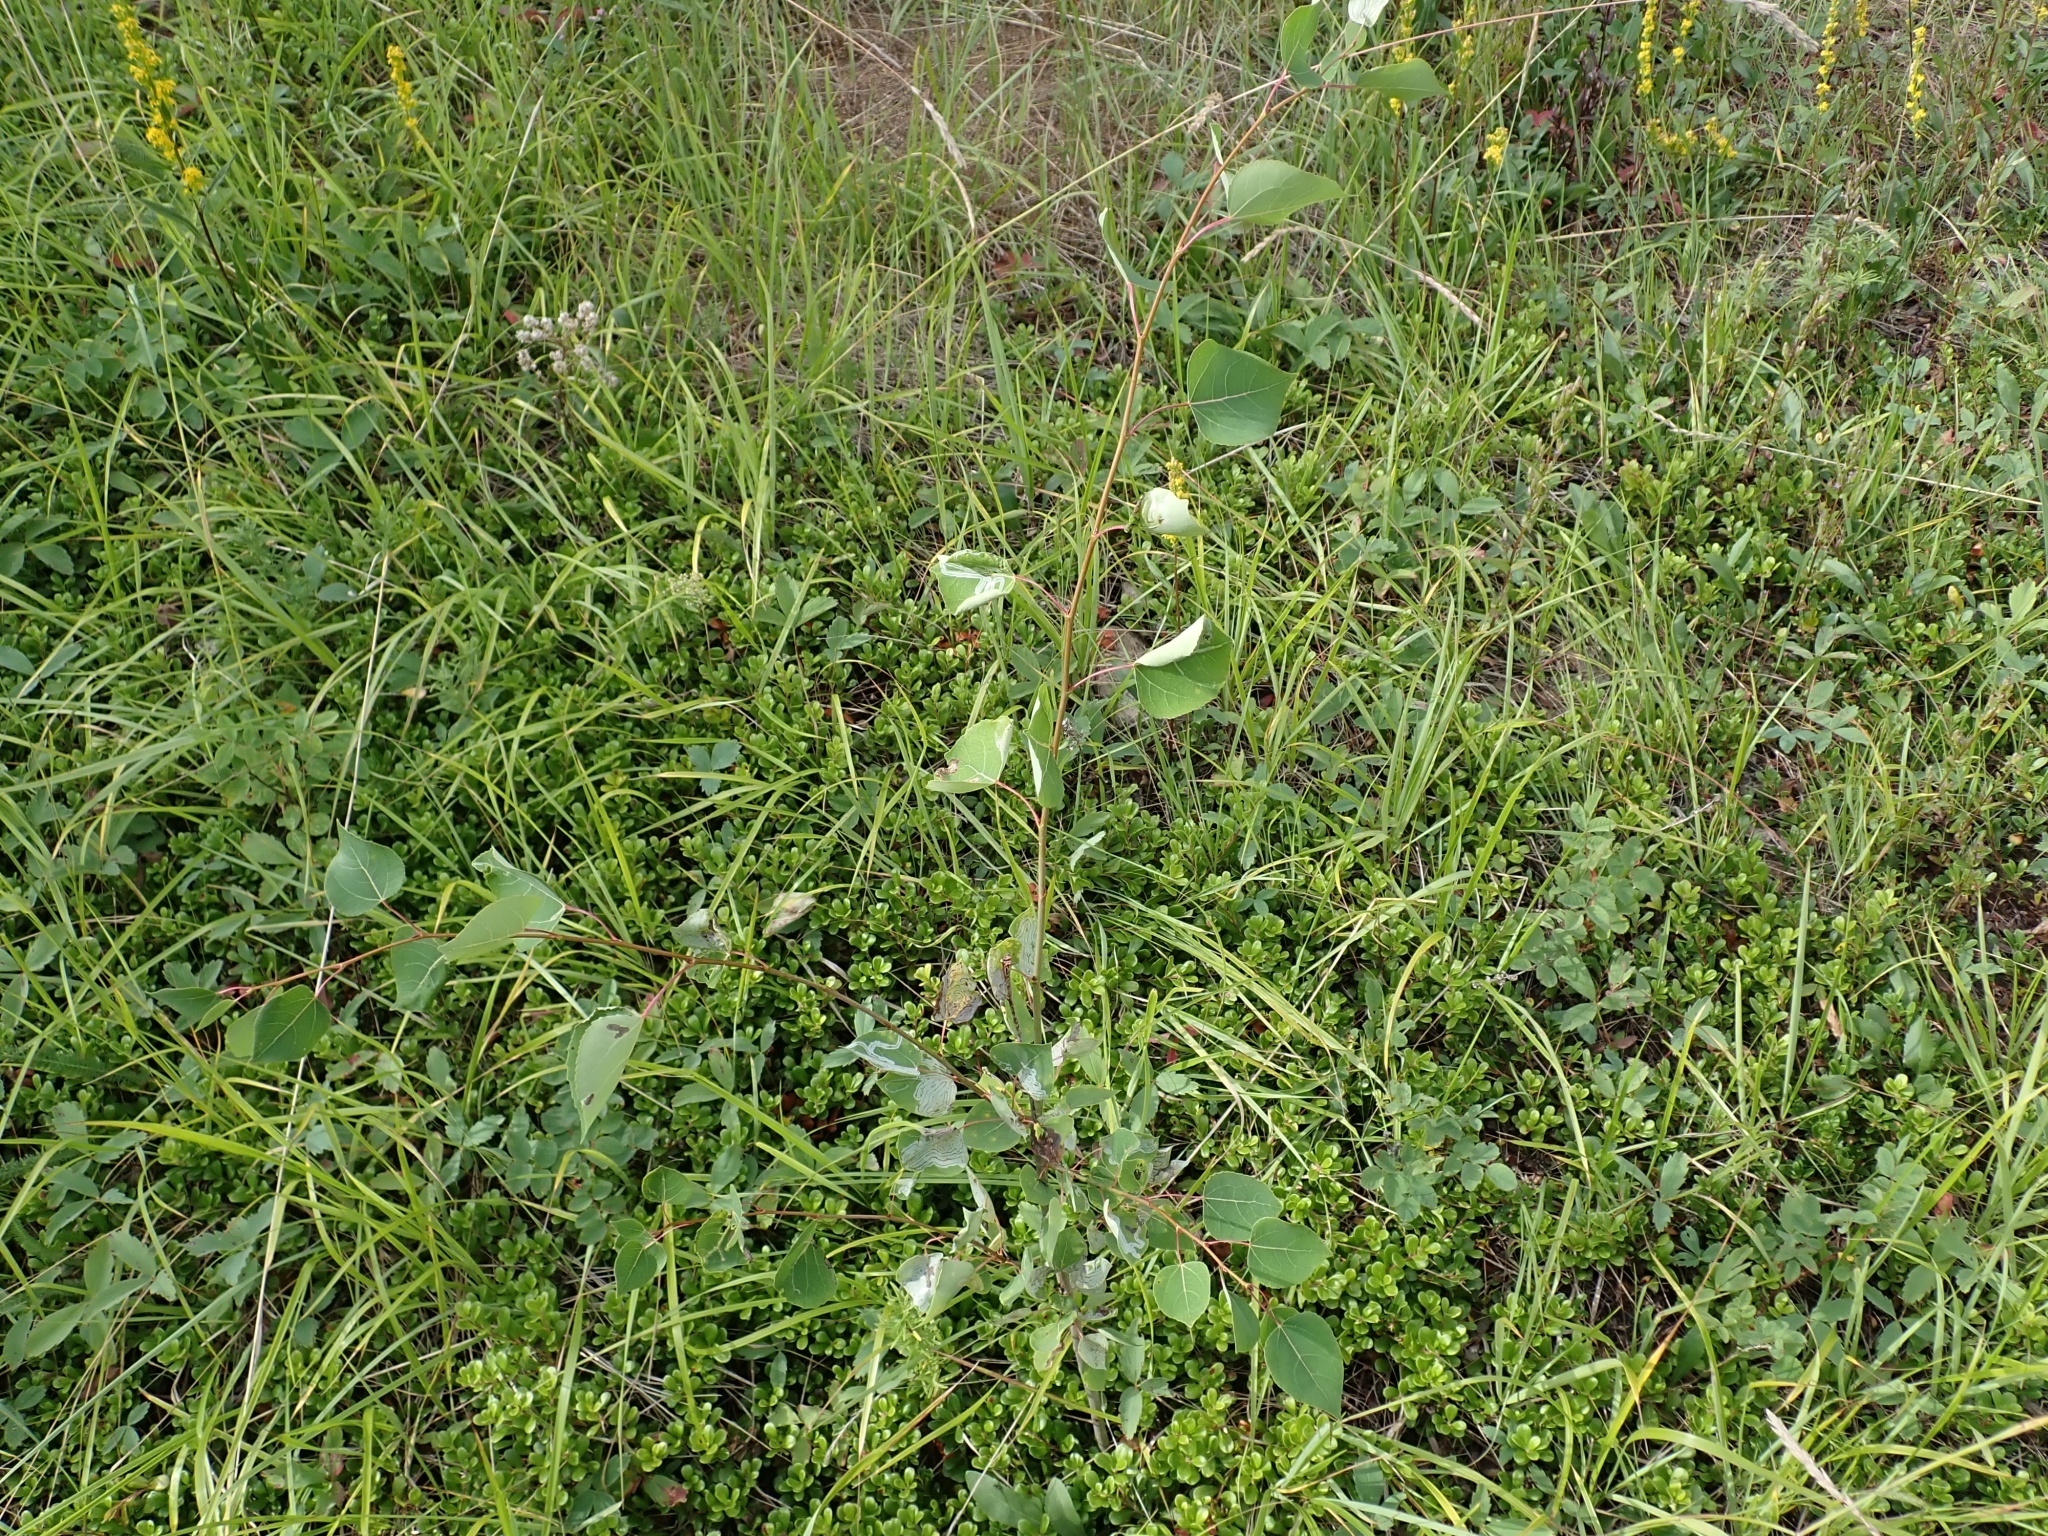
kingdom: Plantae
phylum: Tracheophyta
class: Magnoliopsida
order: Malpighiales
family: Salicaceae
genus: Populus
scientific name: Populus tremuloides
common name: Quaking aspen
